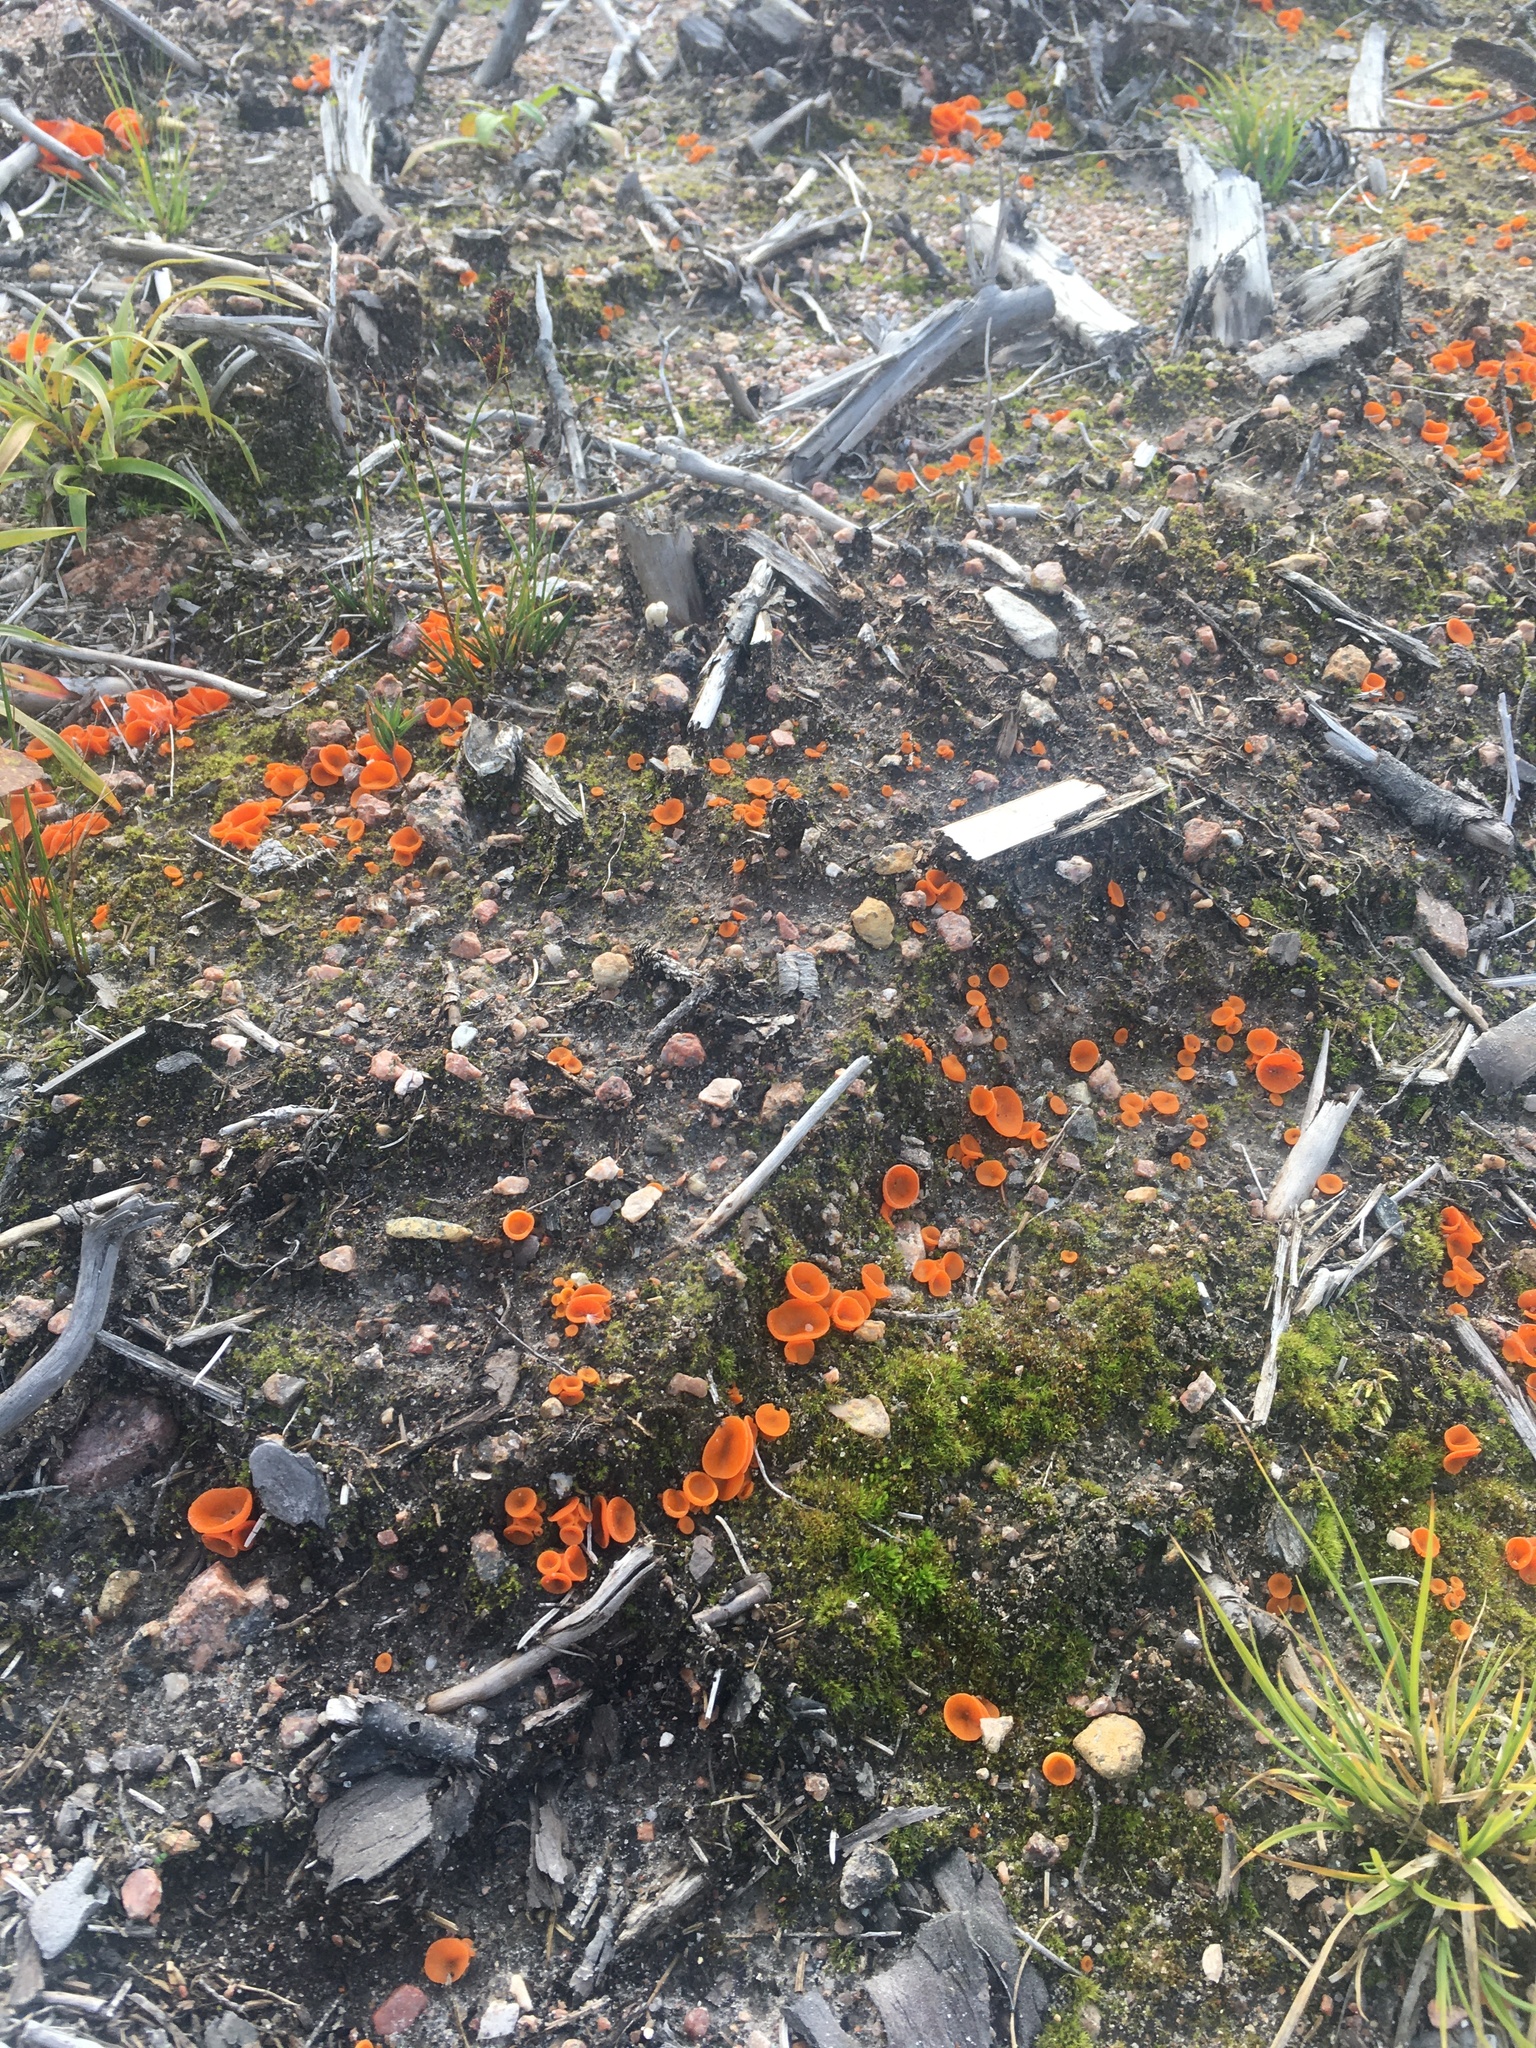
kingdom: Fungi
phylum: Ascomycota
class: Pezizomycetes
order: Pezizales
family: Pyronemataceae
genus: Aleuria
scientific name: Aleuria aurantia
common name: Orange peel fungus
